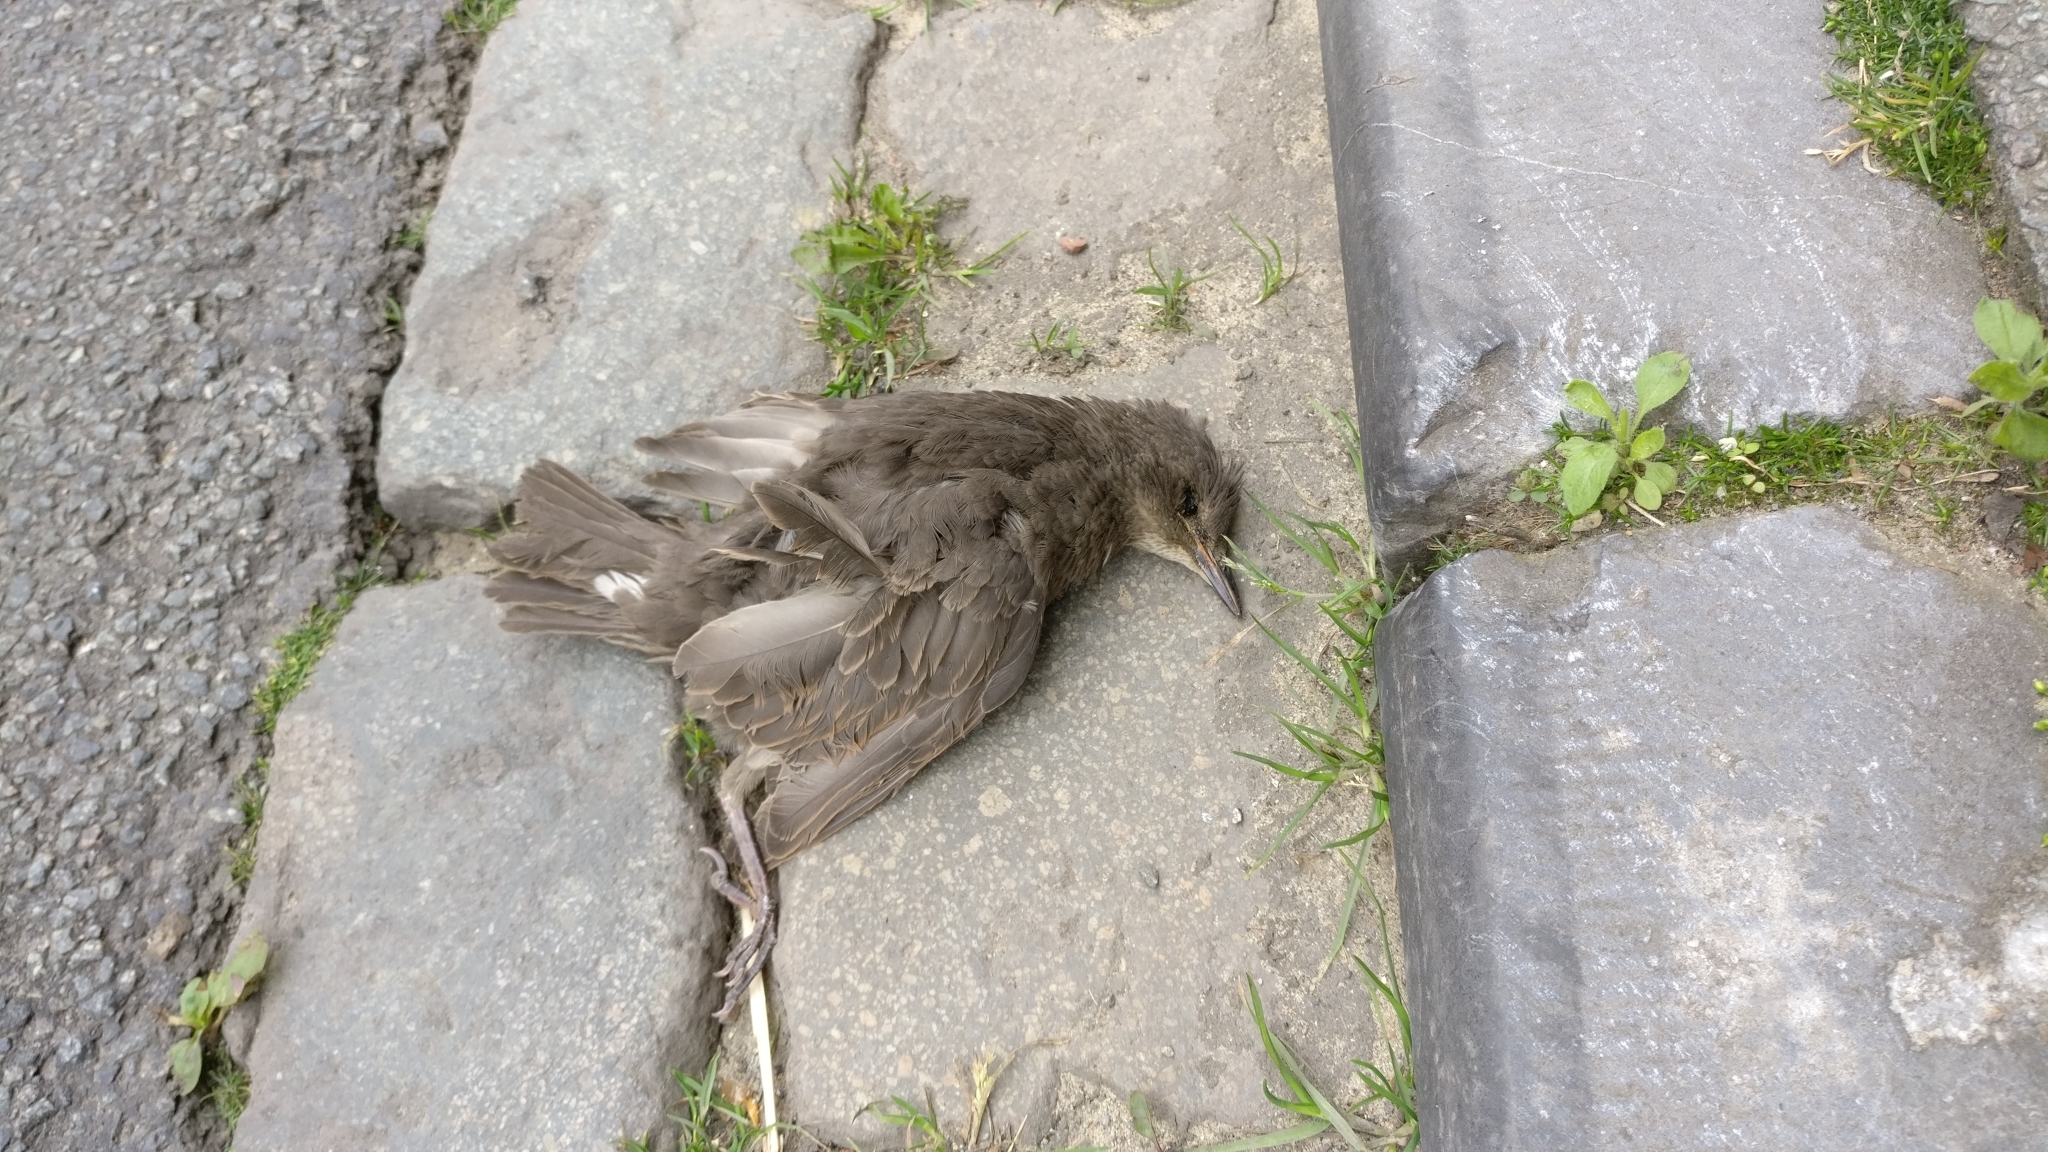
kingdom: Animalia
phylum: Chordata
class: Aves
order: Passeriformes
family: Sturnidae
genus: Sturnus
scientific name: Sturnus vulgaris
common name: Common starling
